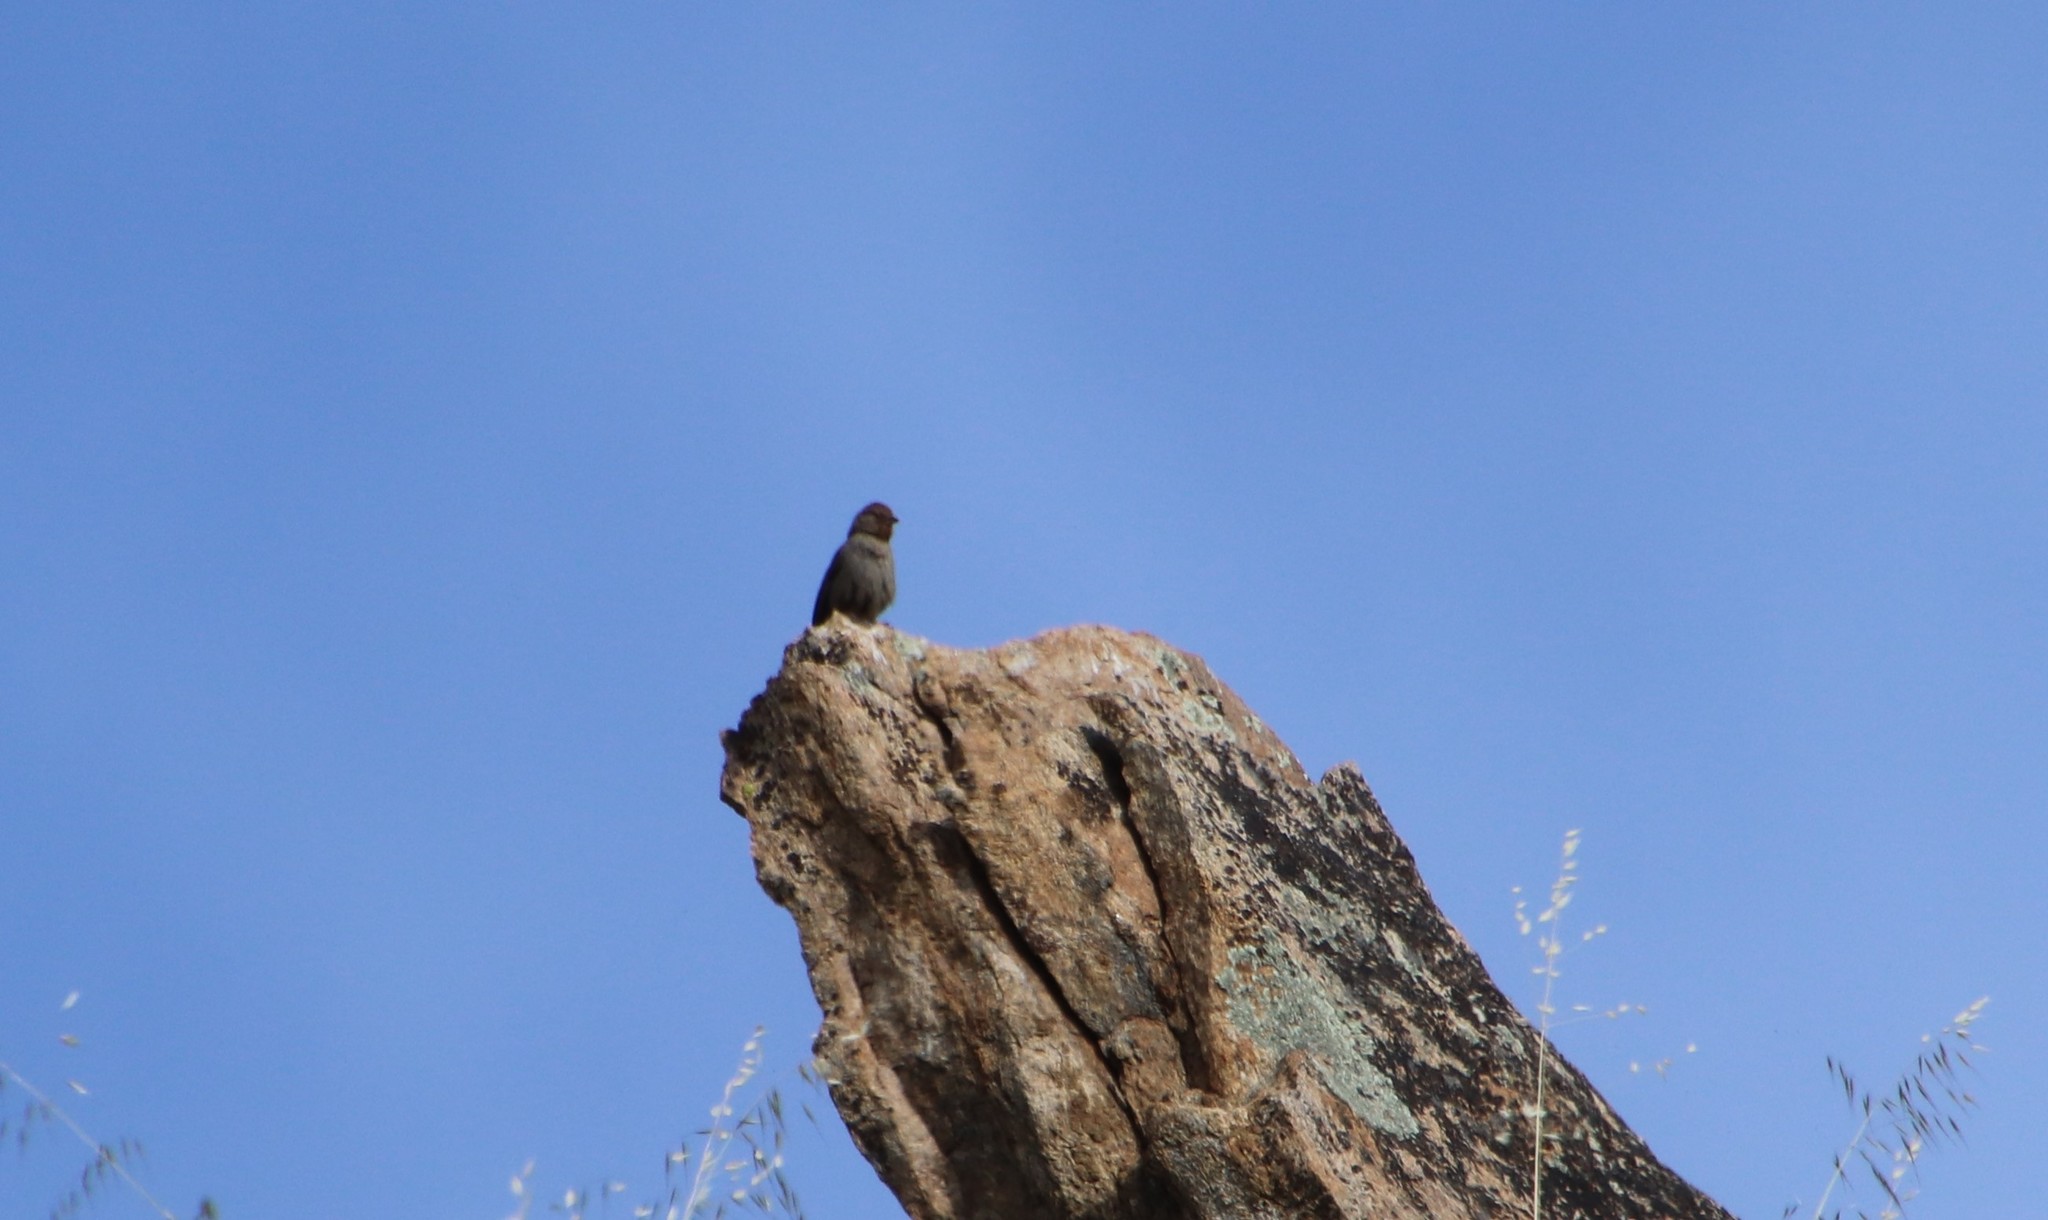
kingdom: Animalia
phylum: Chordata
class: Aves
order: Passeriformes
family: Passerellidae
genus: Melozone
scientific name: Melozone crissalis
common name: California towhee
